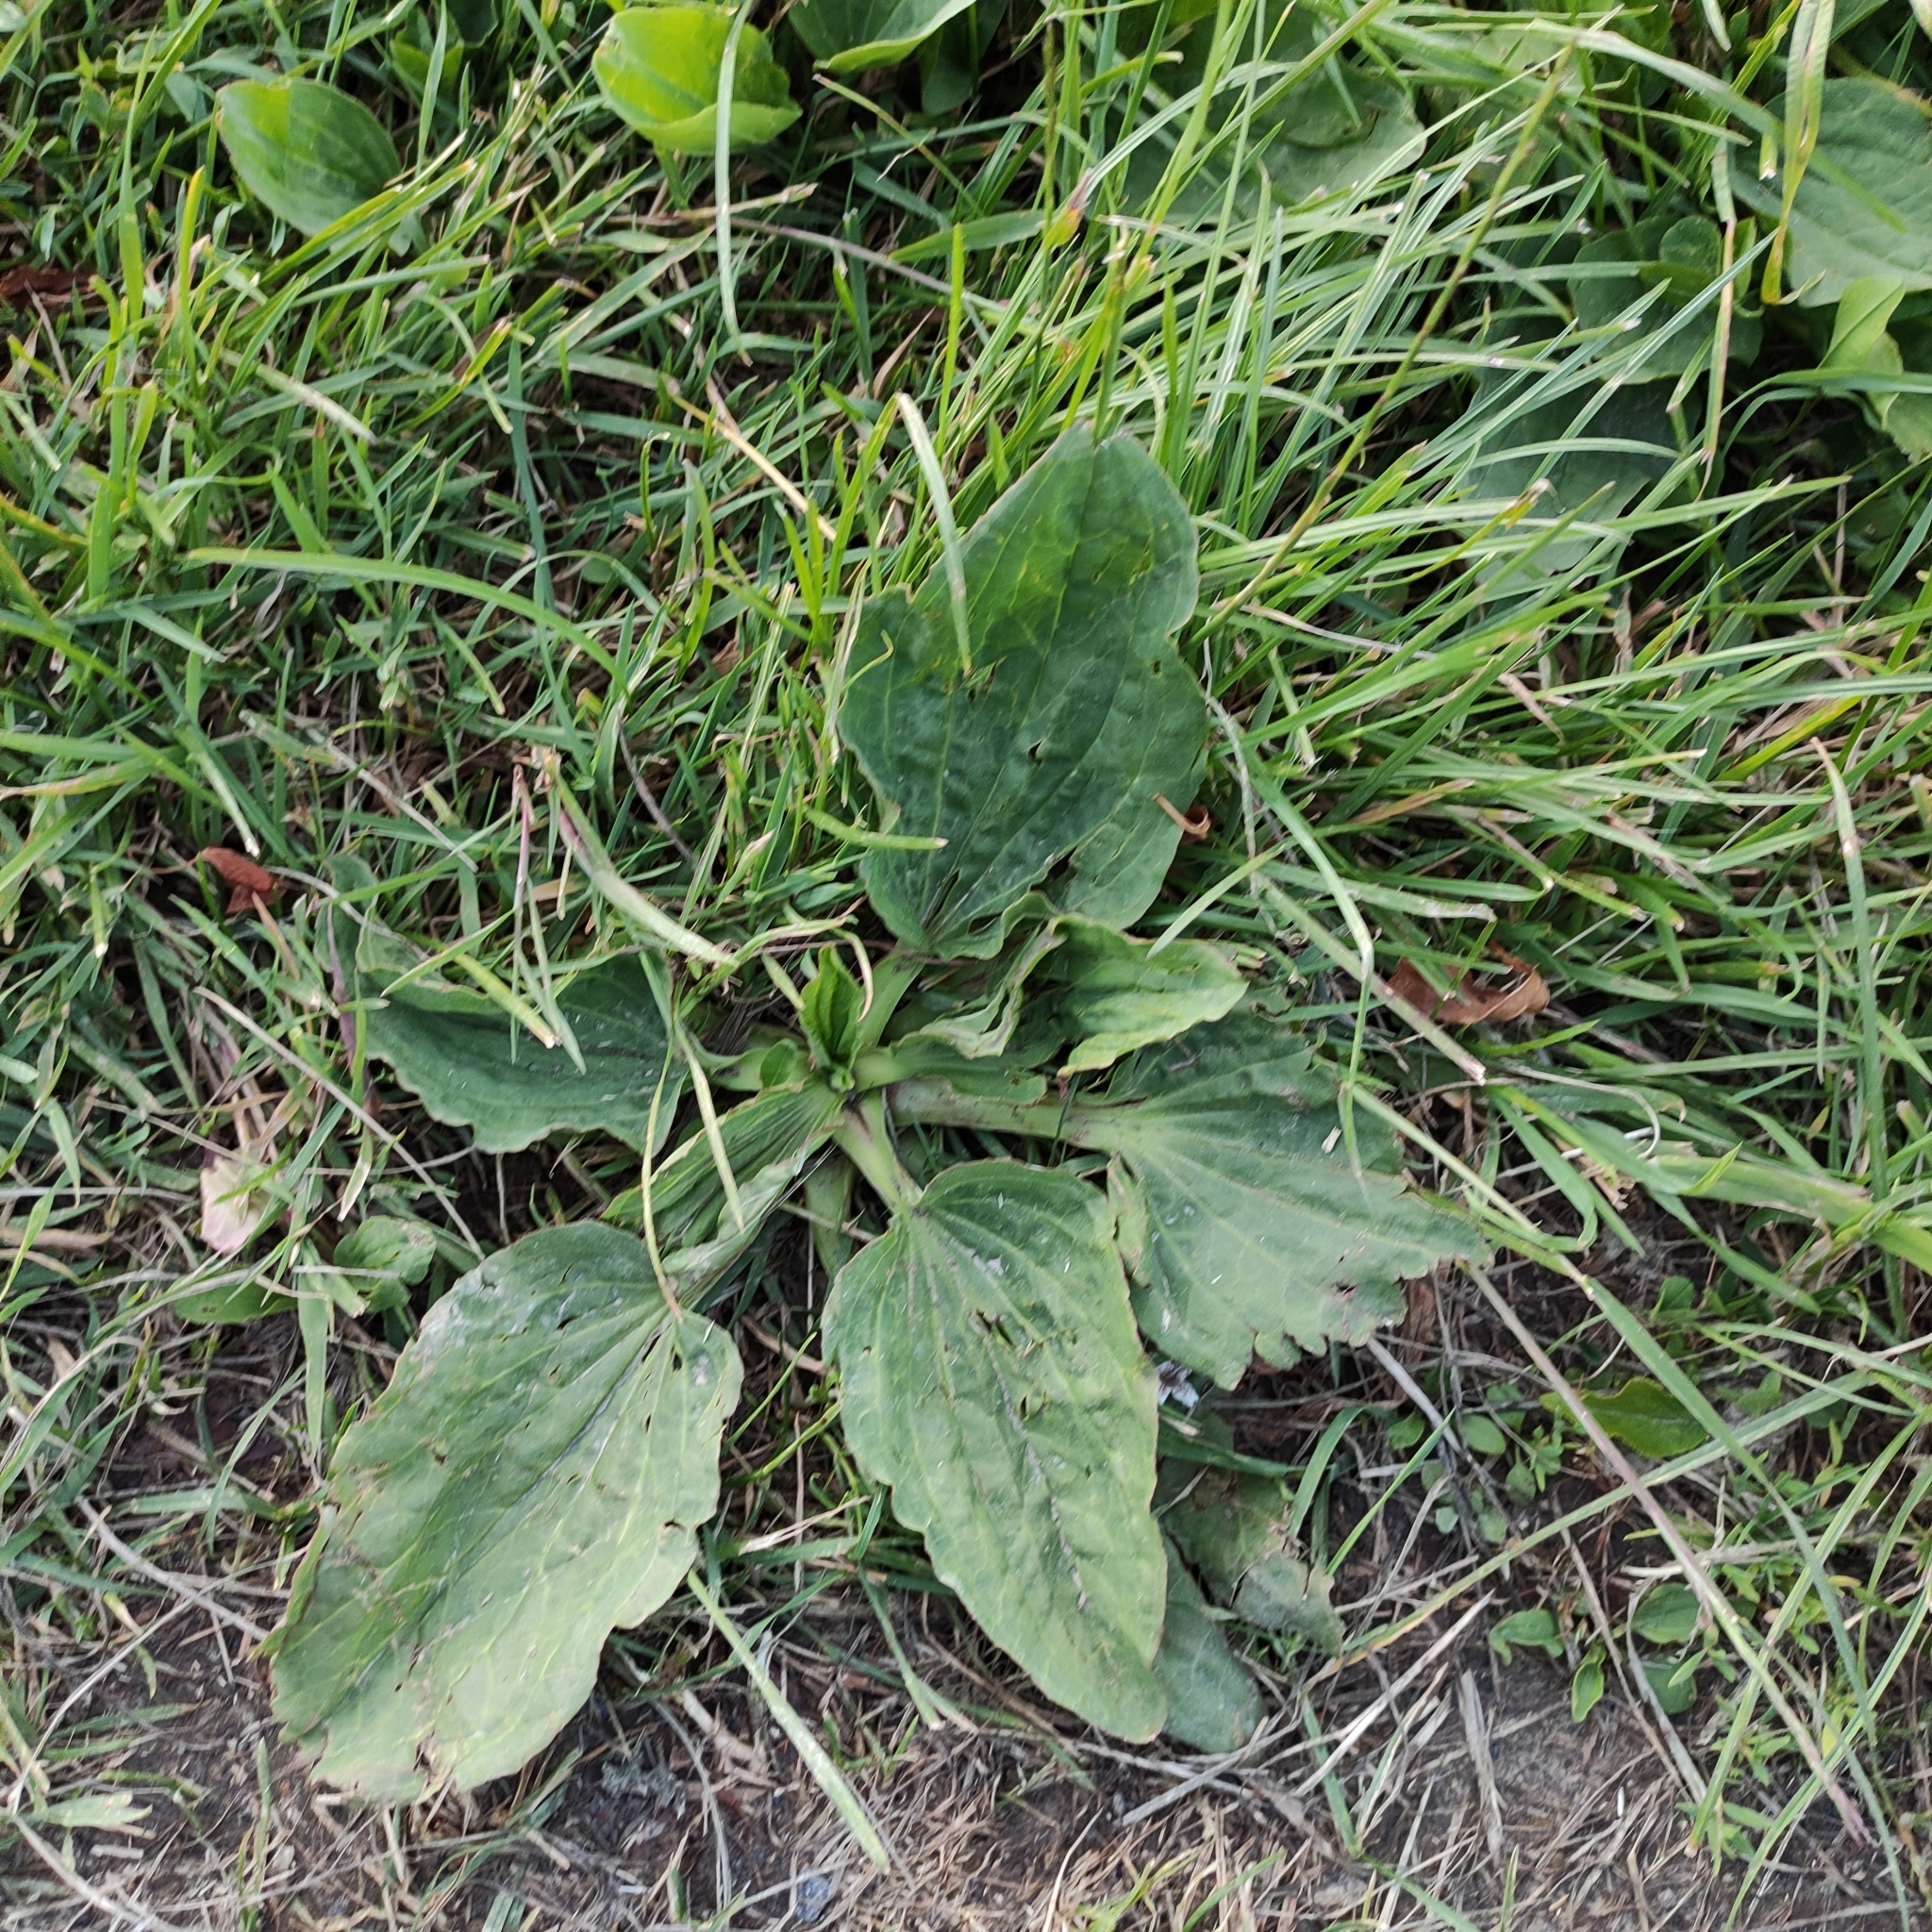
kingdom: Plantae
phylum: Tracheophyta
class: Magnoliopsida
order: Lamiales
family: Plantaginaceae
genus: Plantago
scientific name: Plantago major
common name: Common plantain
